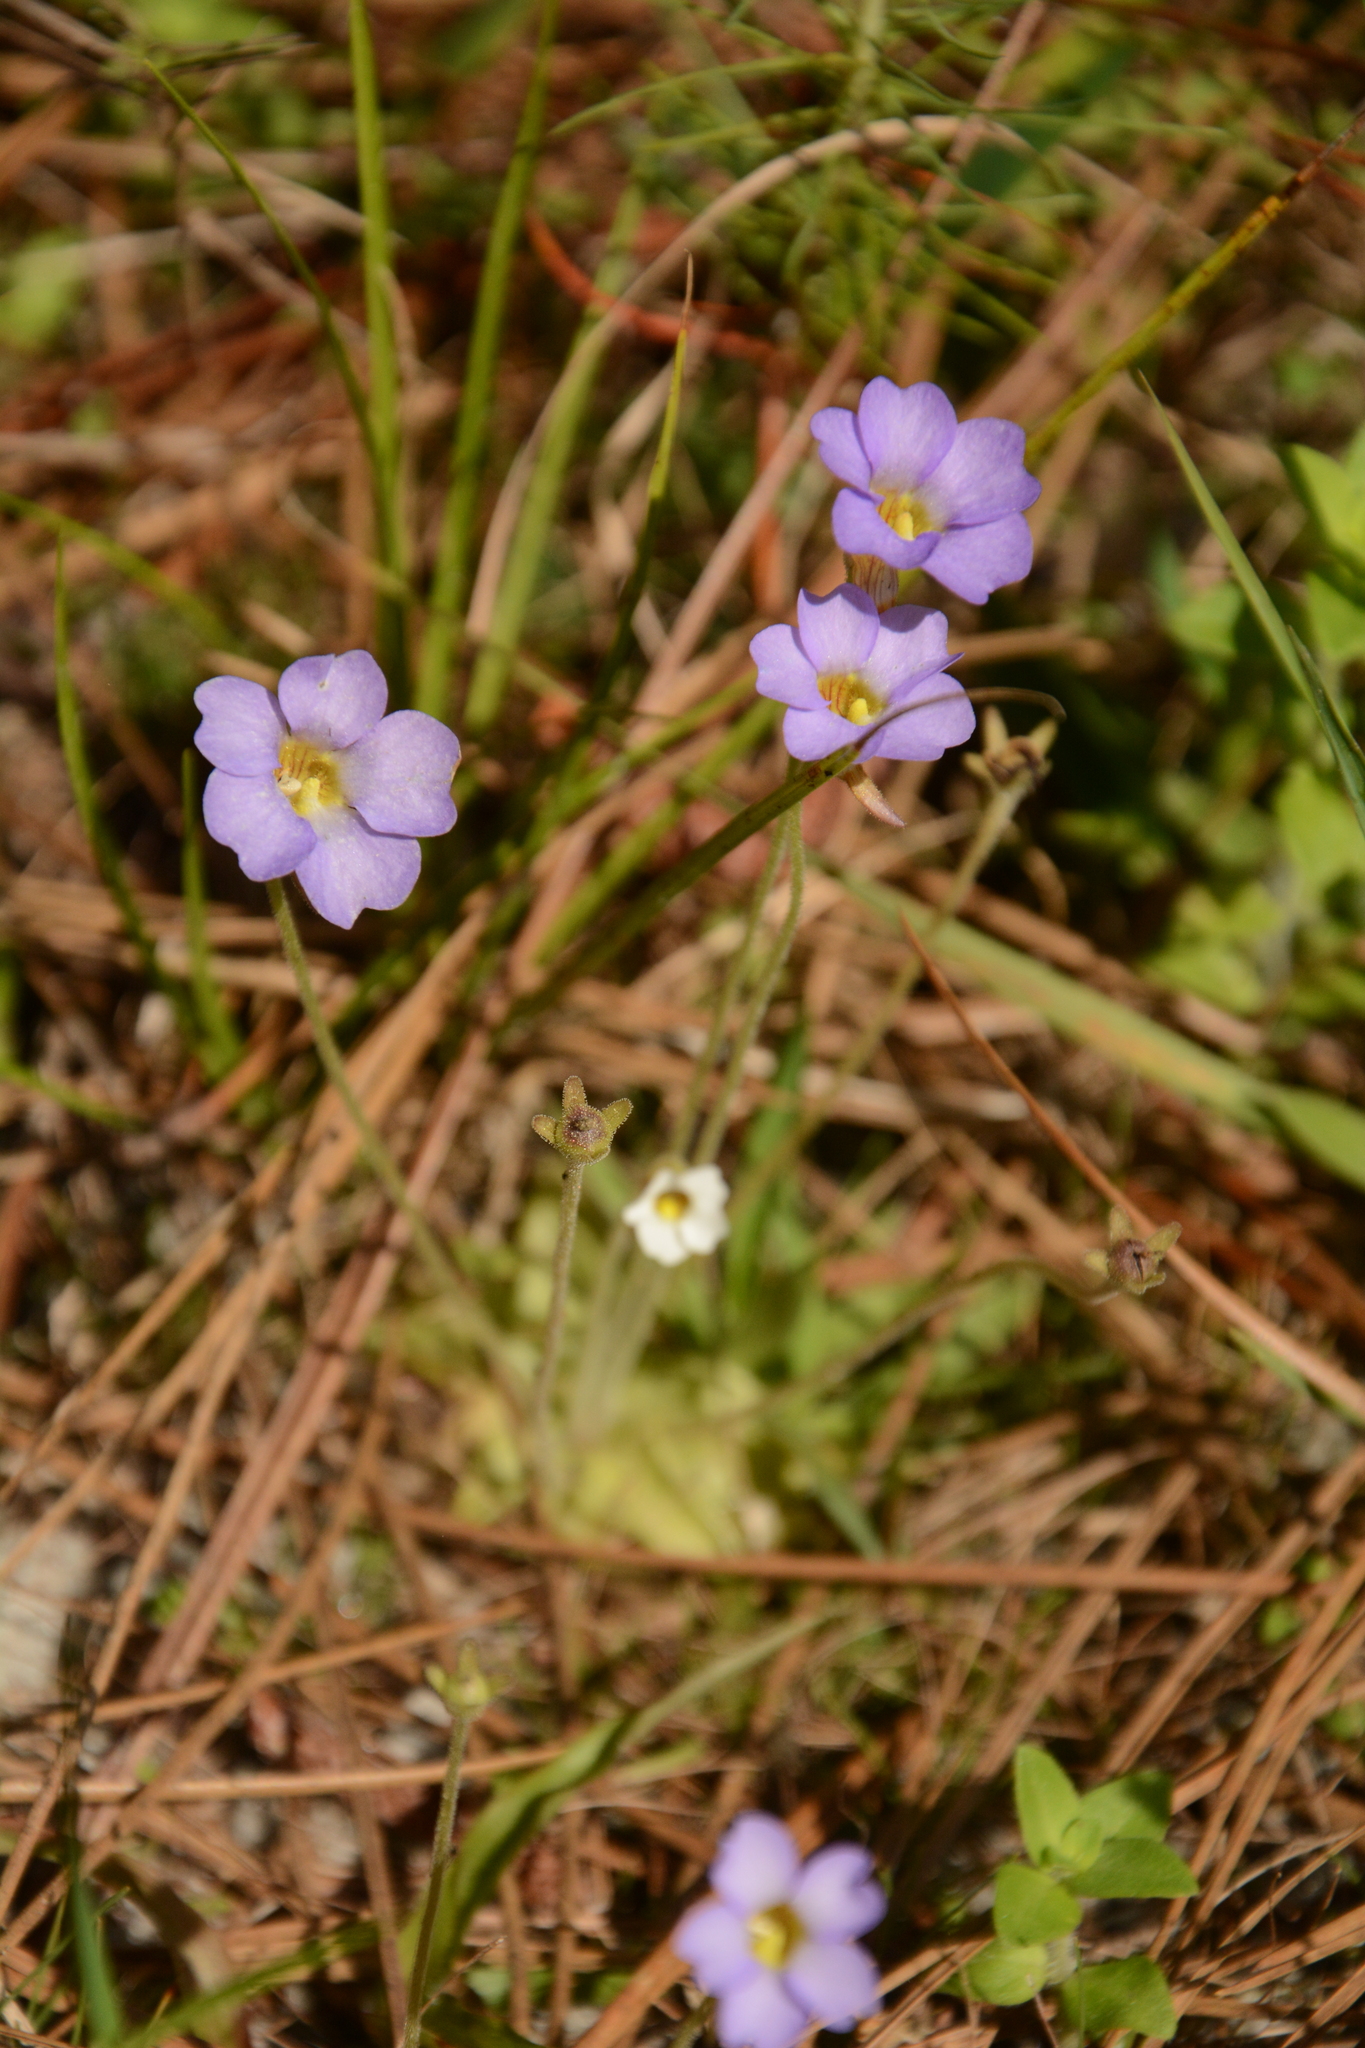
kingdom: Plantae
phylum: Tracheophyta
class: Magnoliopsida
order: Lamiales
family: Lentibulariaceae
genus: Pinguicula
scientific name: Pinguicula pumila
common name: Small butterwort
